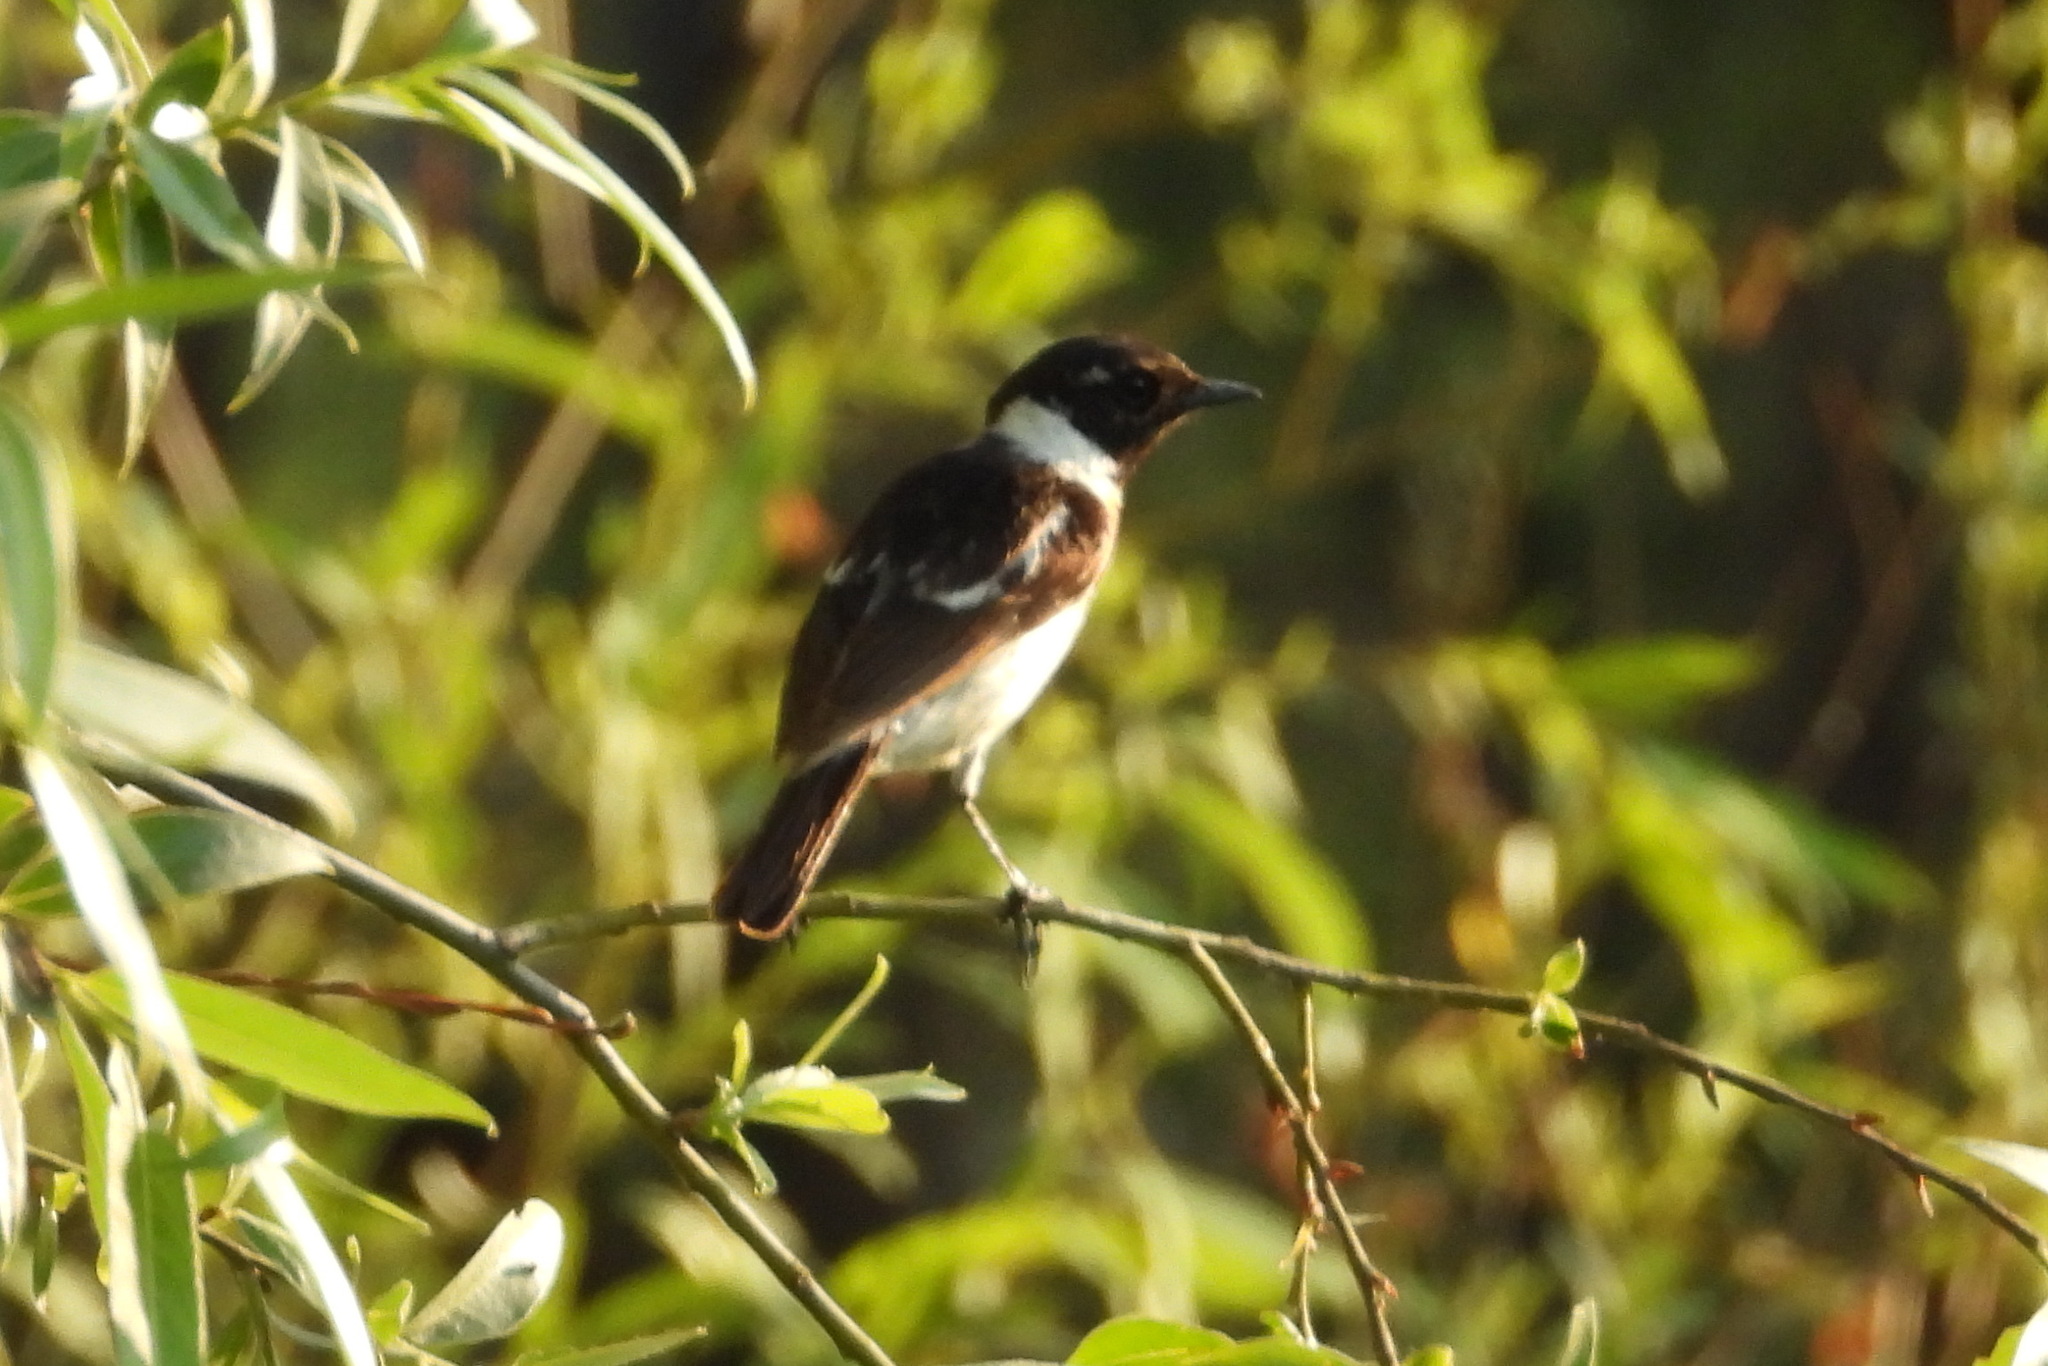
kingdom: Animalia
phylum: Chordata
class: Aves
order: Passeriformes
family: Muscicapidae
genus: Saxicola
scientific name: Saxicola maurus
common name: Siberian stonechat
